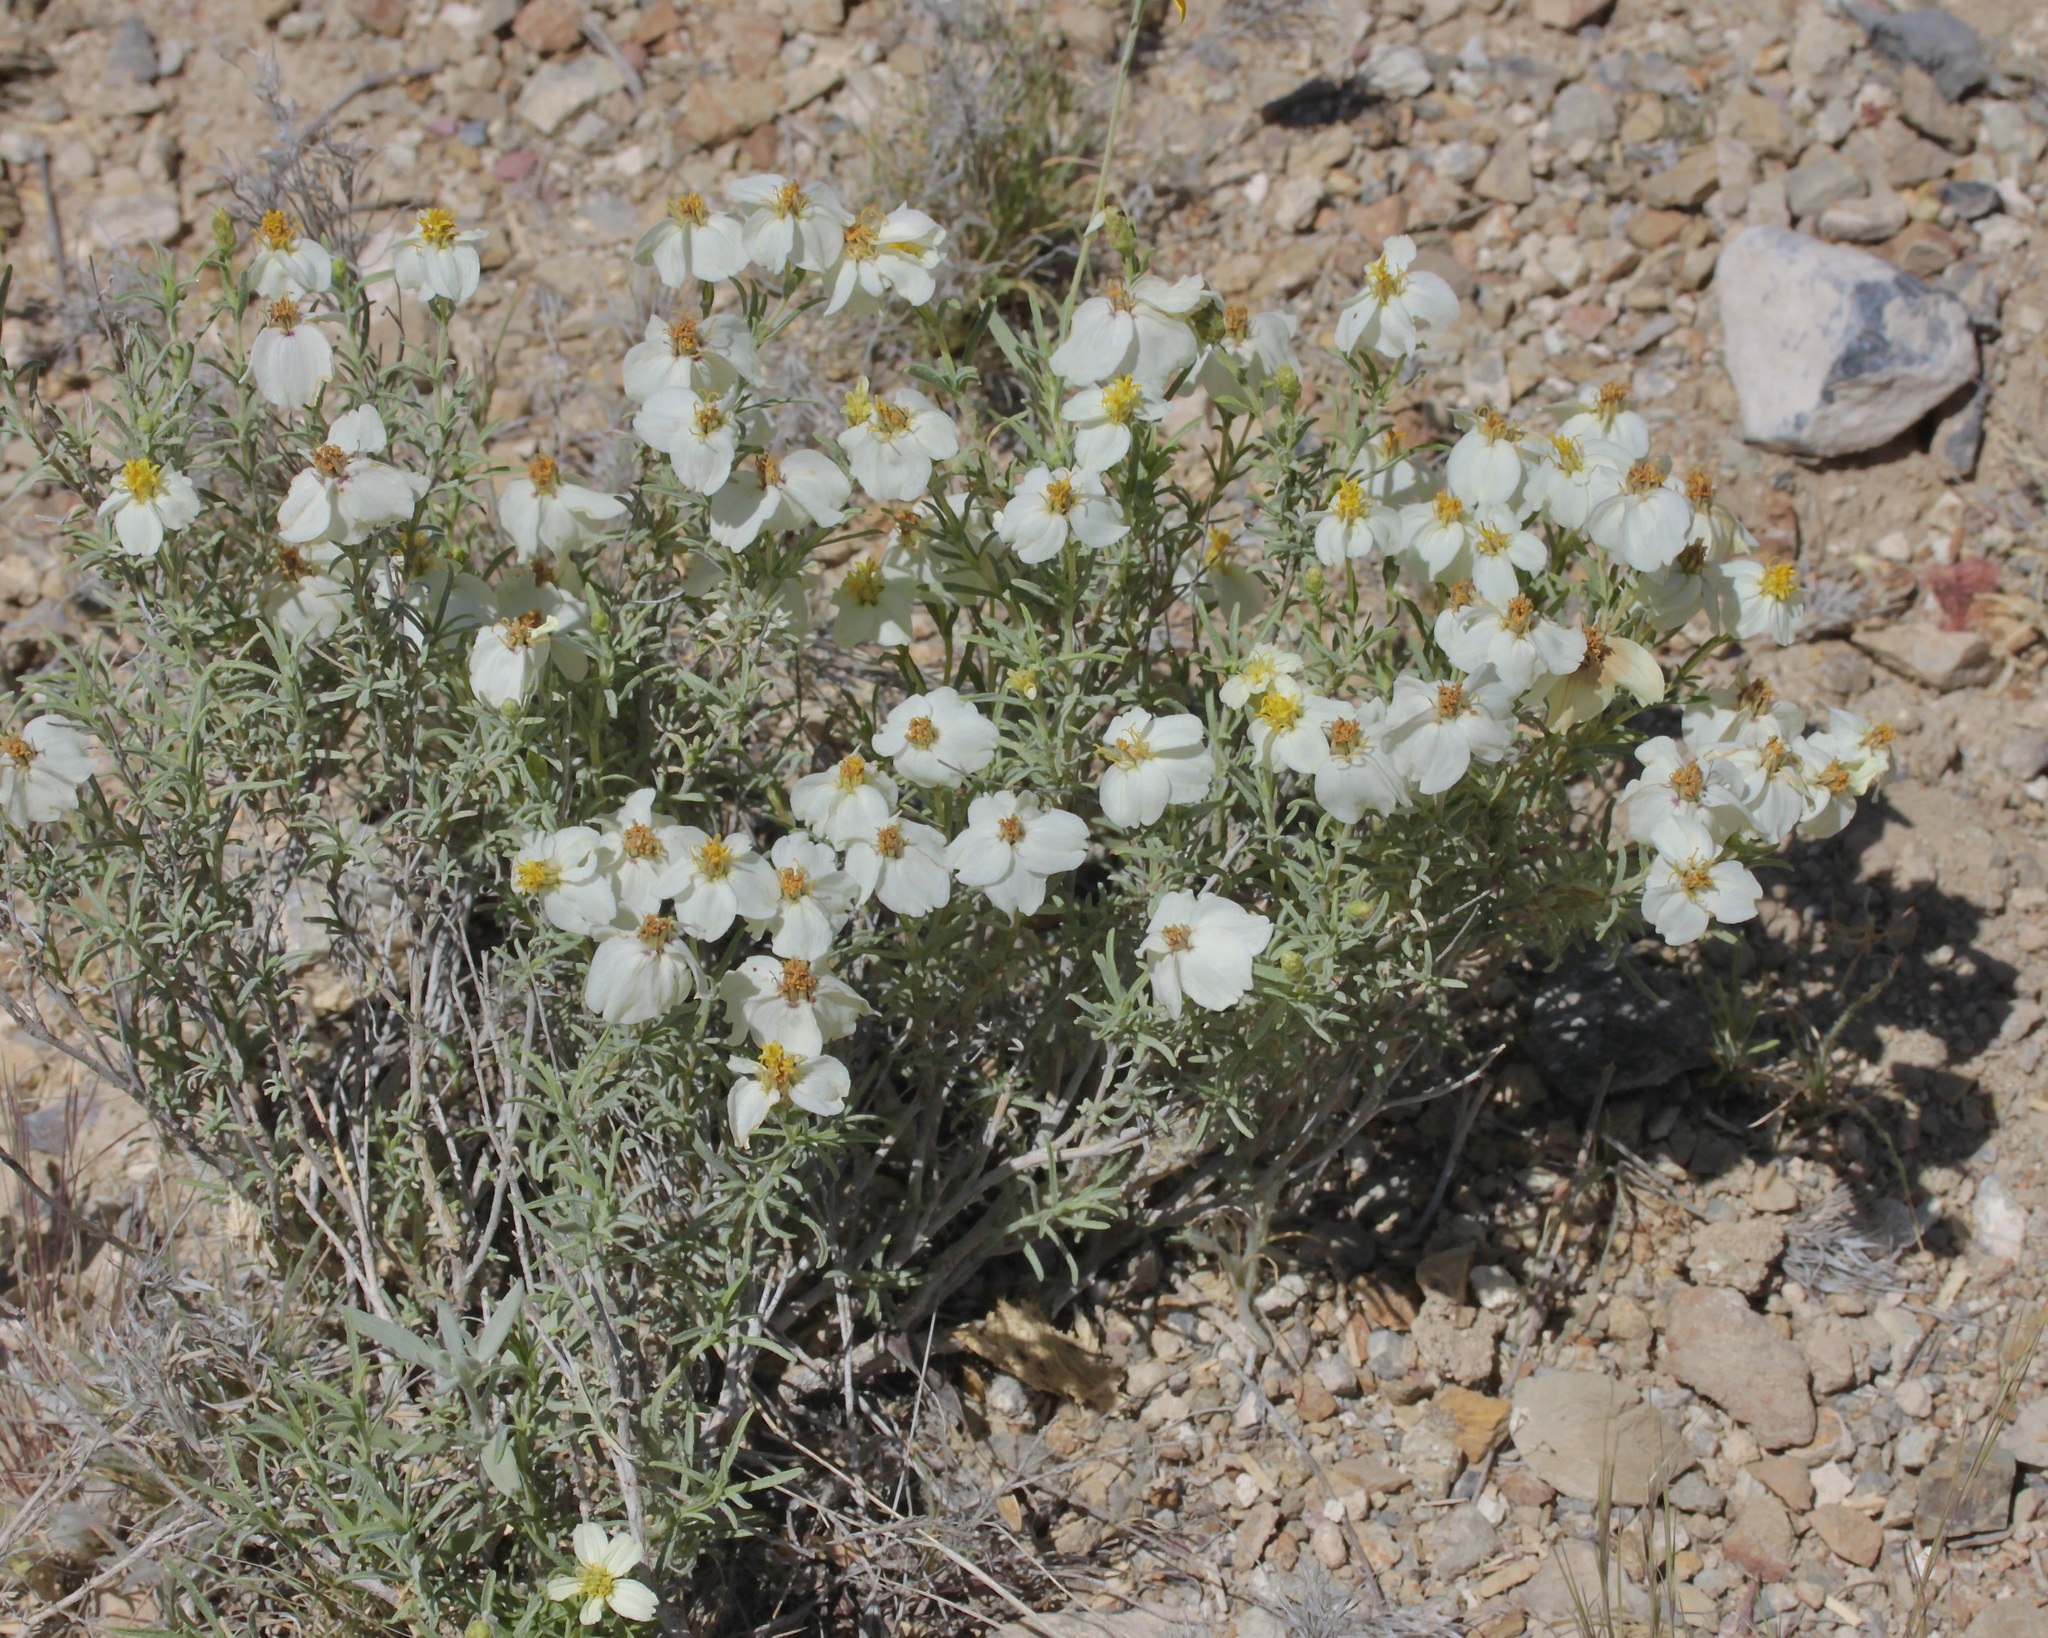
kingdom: Plantae
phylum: Tracheophyta
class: Magnoliopsida
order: Asterales
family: Asteraceae
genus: Zinnia
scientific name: Zinnia acerosa
